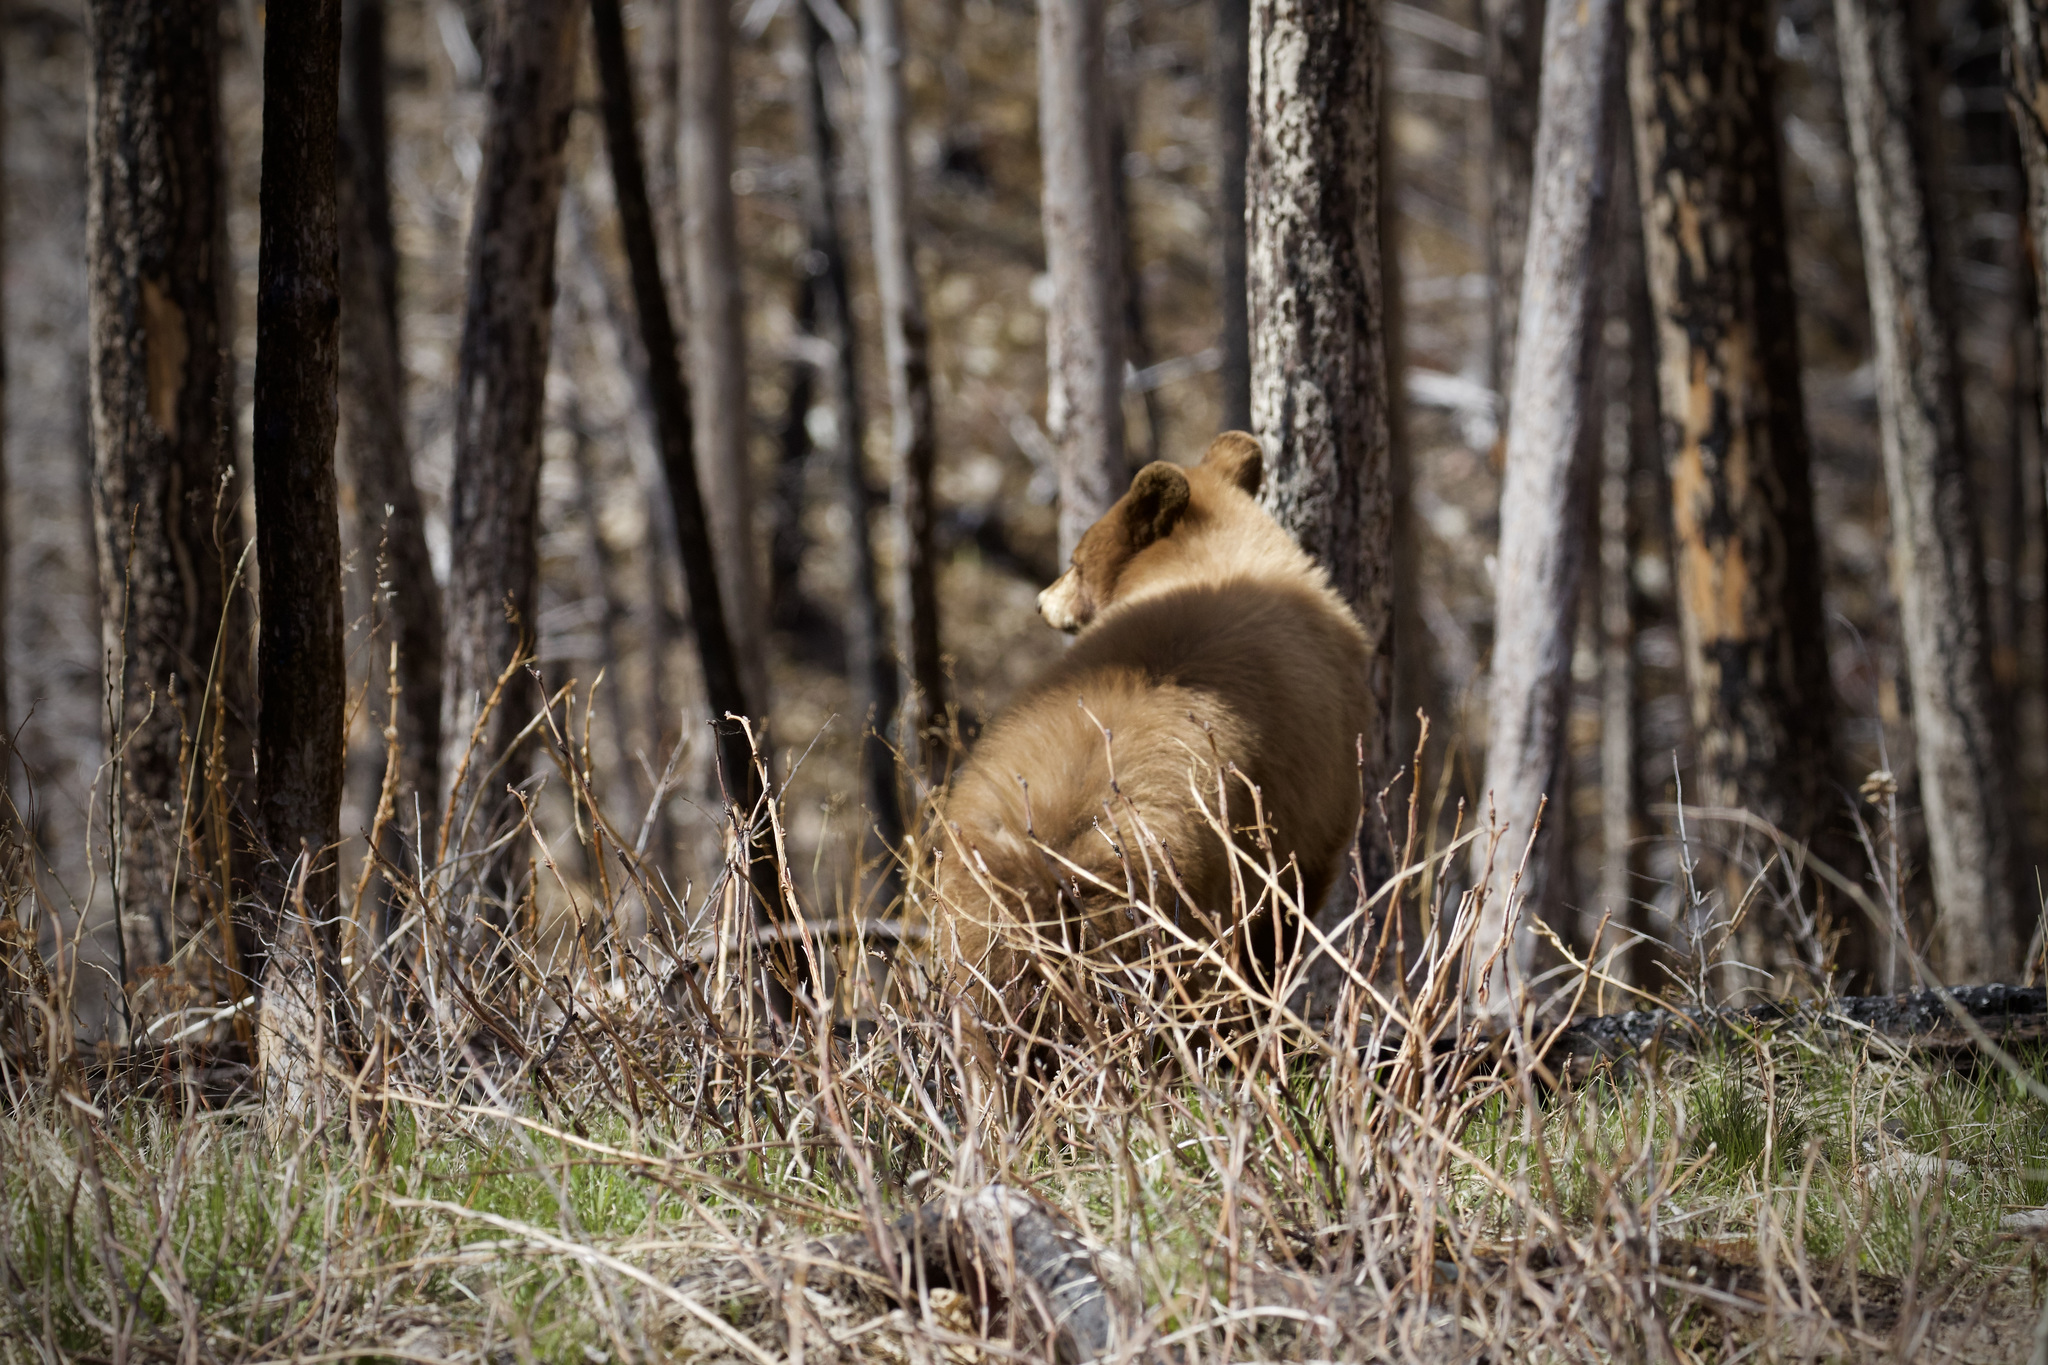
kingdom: Animalia
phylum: Chordata
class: Mammalia
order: Carnivora
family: Ursidae
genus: Ursus
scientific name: Ursus americanus
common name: American black bear
